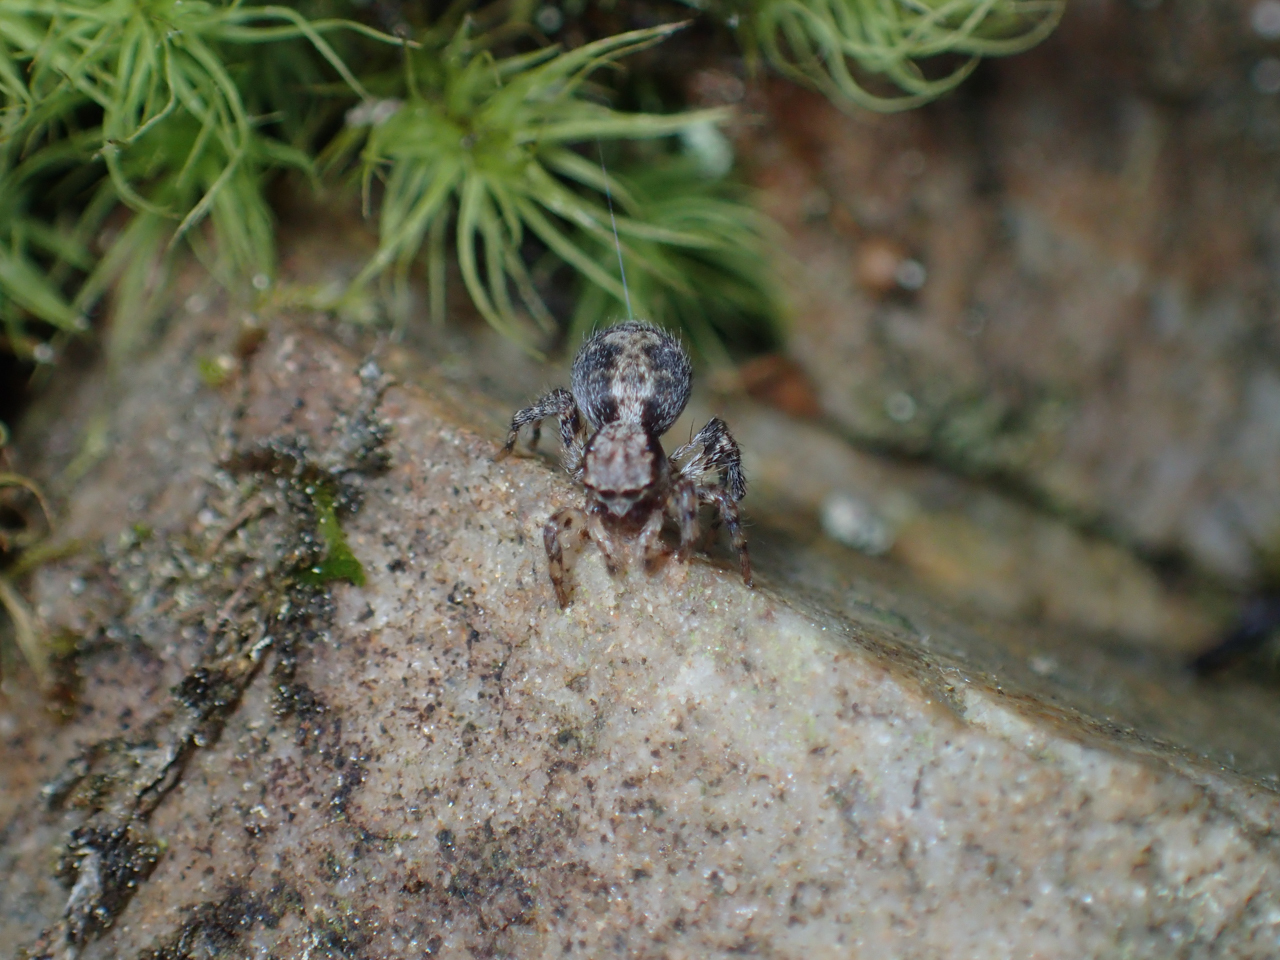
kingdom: Animalia
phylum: Arthropoda
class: Arachnida
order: Araneae
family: Salticidae
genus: Naphrys
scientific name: Naphrys pulex
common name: Flea jumping spider
